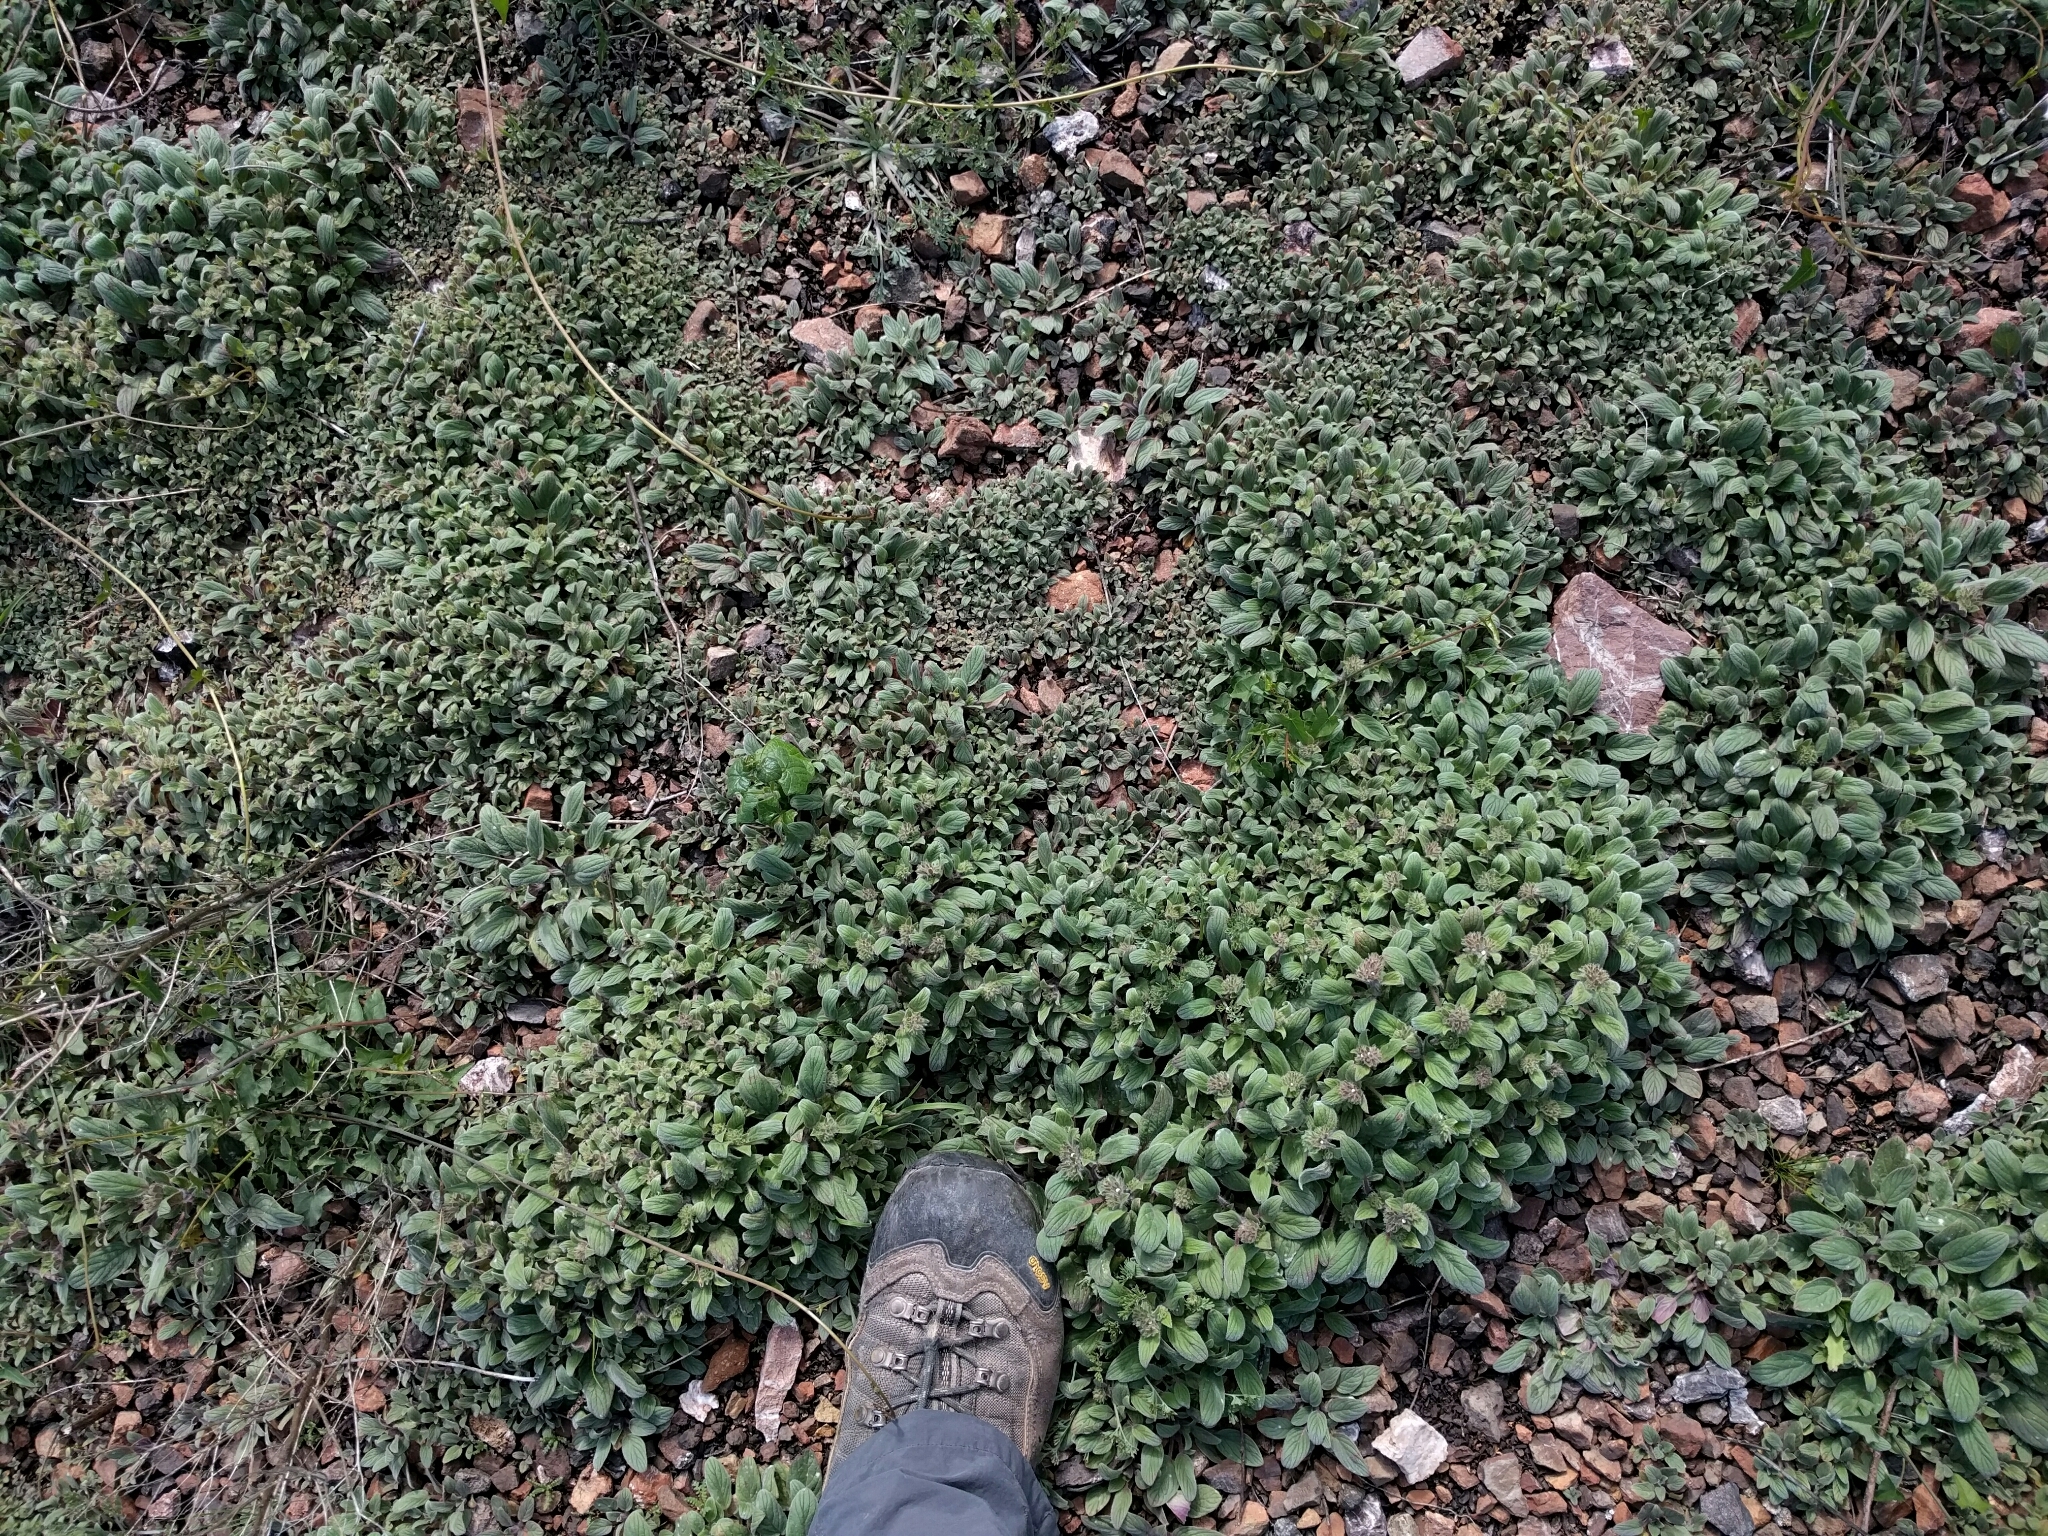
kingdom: Plantae
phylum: Tracheophyta
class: Magnoliopsida
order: Boraginales
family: Hydrophyllaceae
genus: Phacelia
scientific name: Phacelia phacelioides
